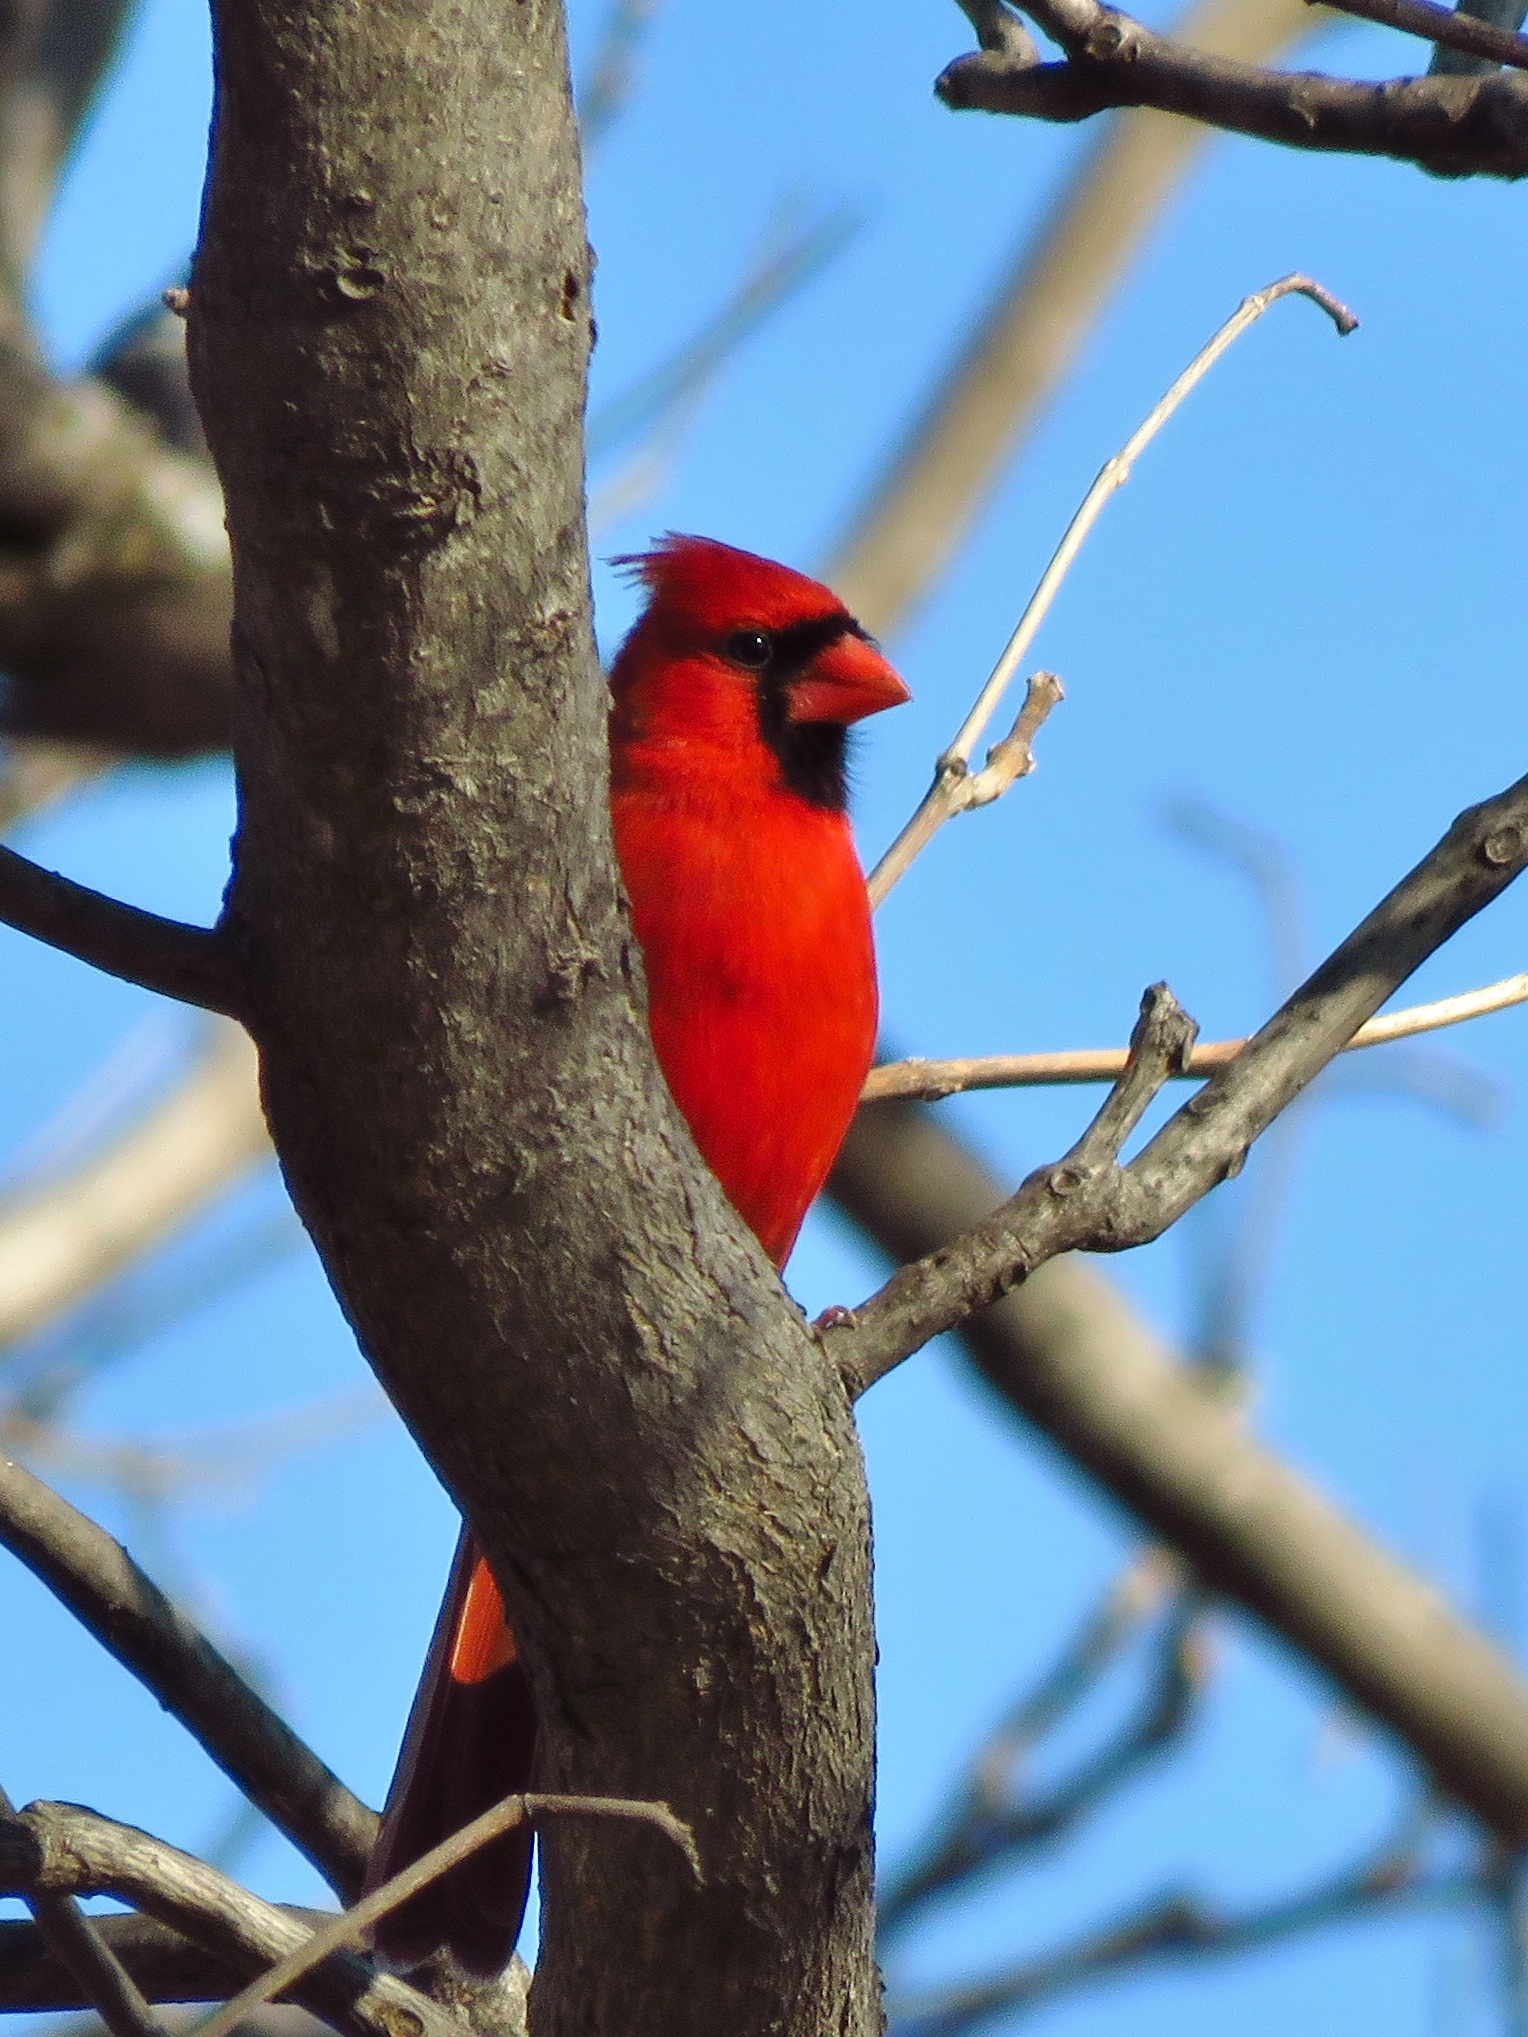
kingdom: Animalia
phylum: Chordata
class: Aves
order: Passeriformes
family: Cardinalidae
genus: Cardinalis
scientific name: Cardinalis cardinalis
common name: Northern cardinal
